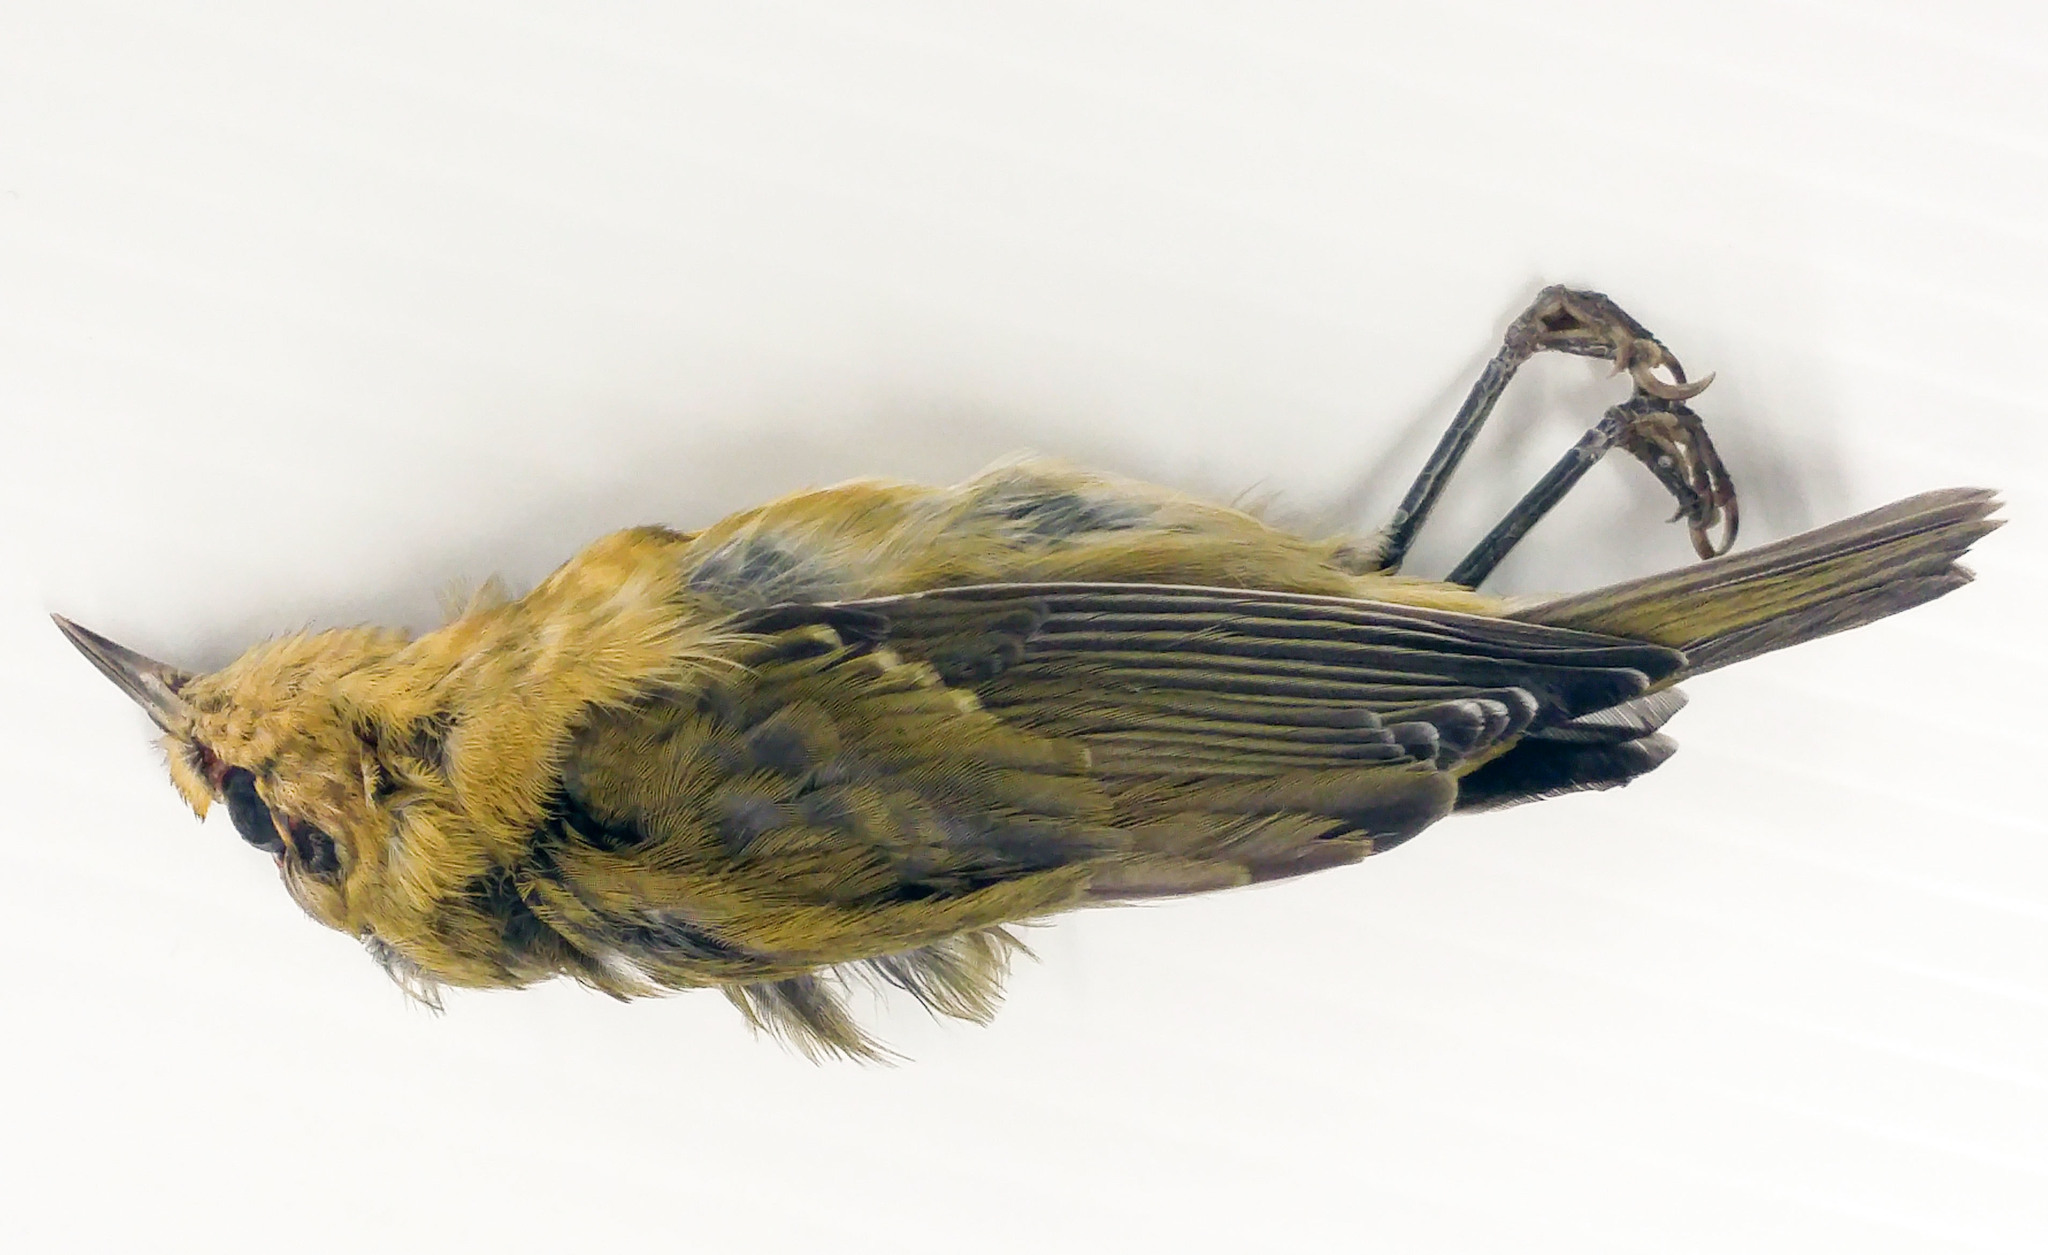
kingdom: Animalia
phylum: Chordata
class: Aves
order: Passeriformes
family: Parulidae
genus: Leiothlypis
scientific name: Leiothlypis peregrina
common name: Tennessee warbler
